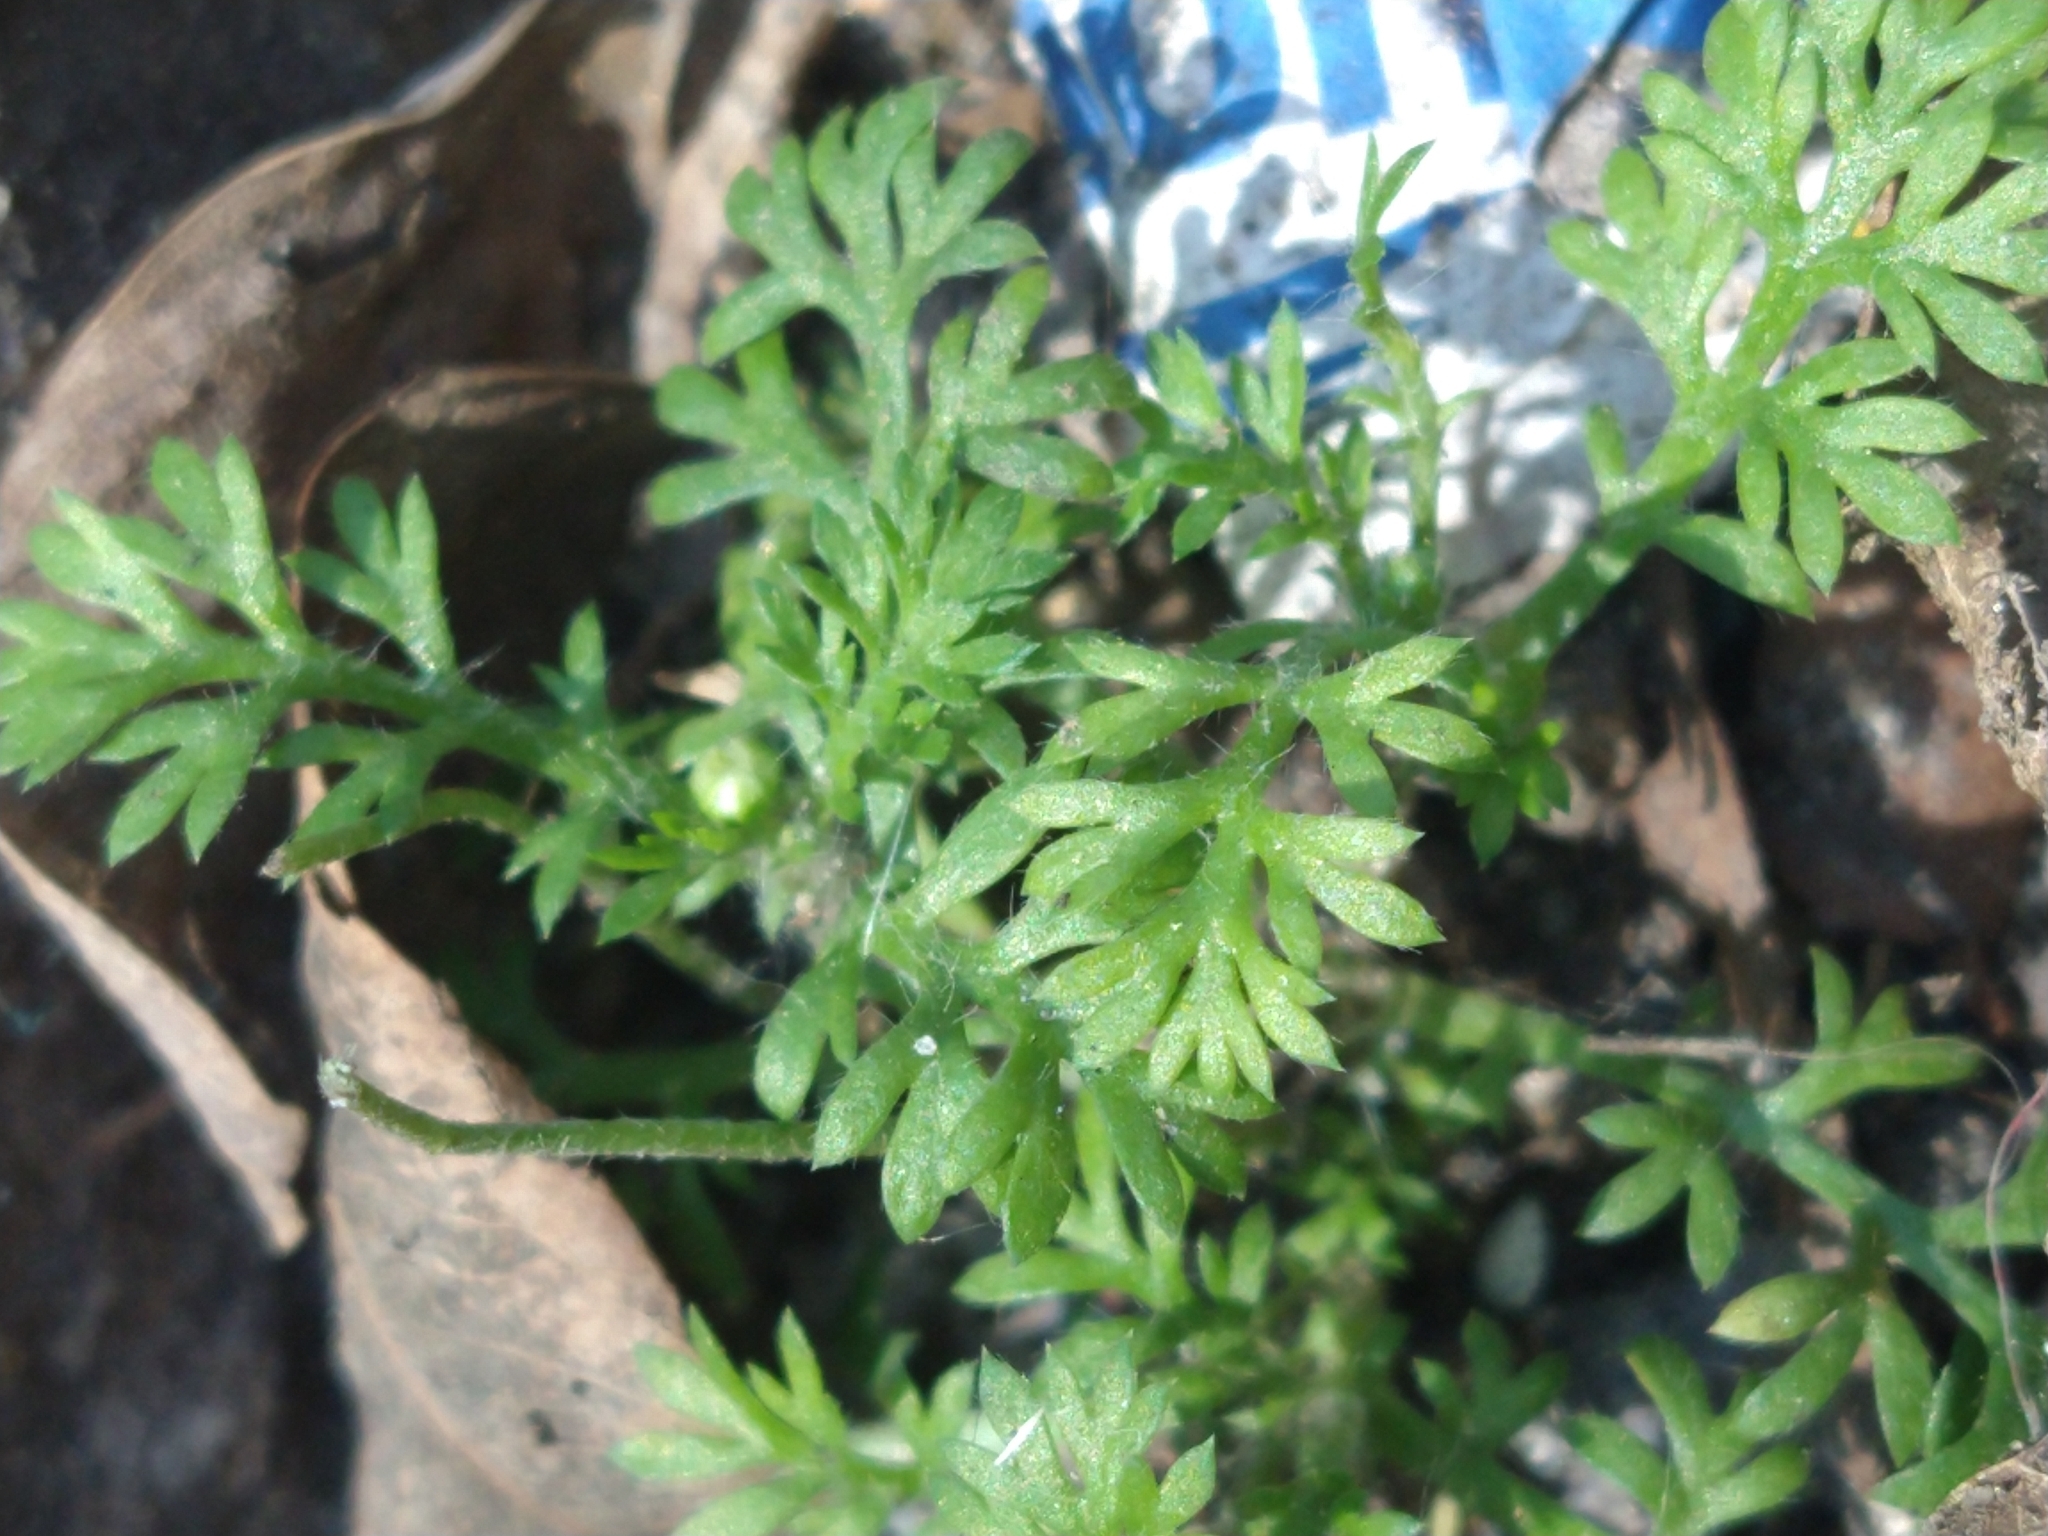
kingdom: Plantae
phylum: Tracheophyta
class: Magnoliopsida
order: Asterales
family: Asteraceae
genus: Cotula
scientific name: Cotula australis
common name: Australian waterbuttons
